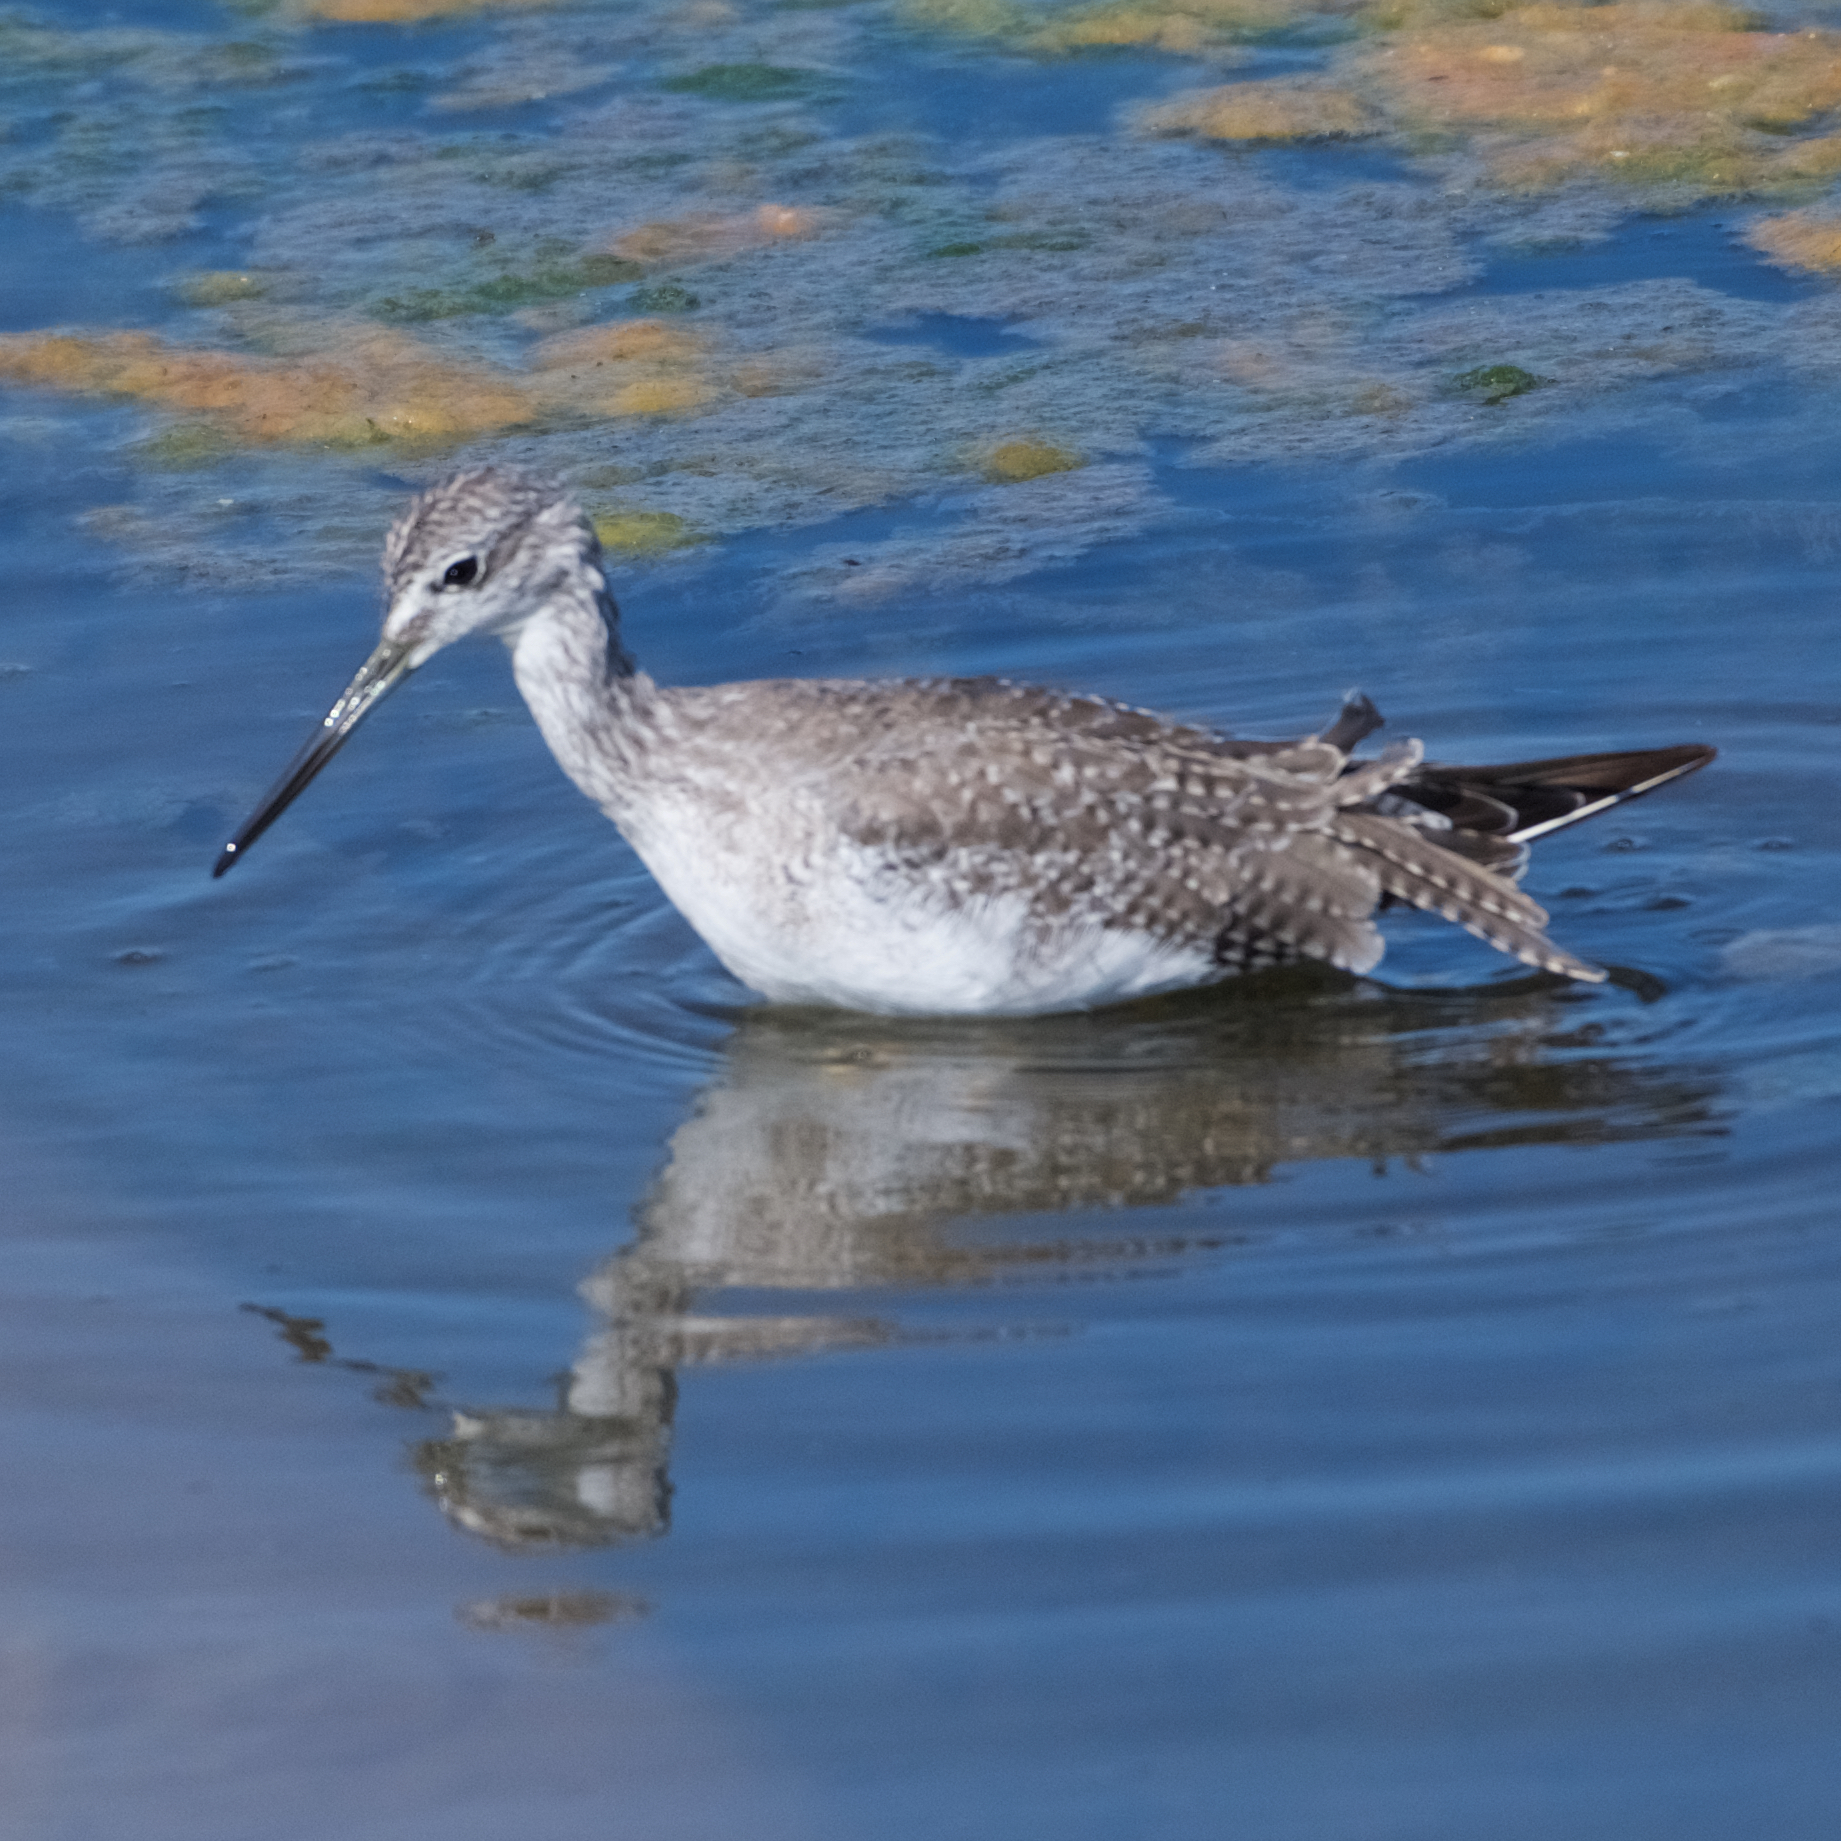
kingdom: Animalia
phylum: Chordata
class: Aves
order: Charadriiformes
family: Scolopacidae
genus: Tringa
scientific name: Tringa melanoleuca
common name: Greater yellowlegs
